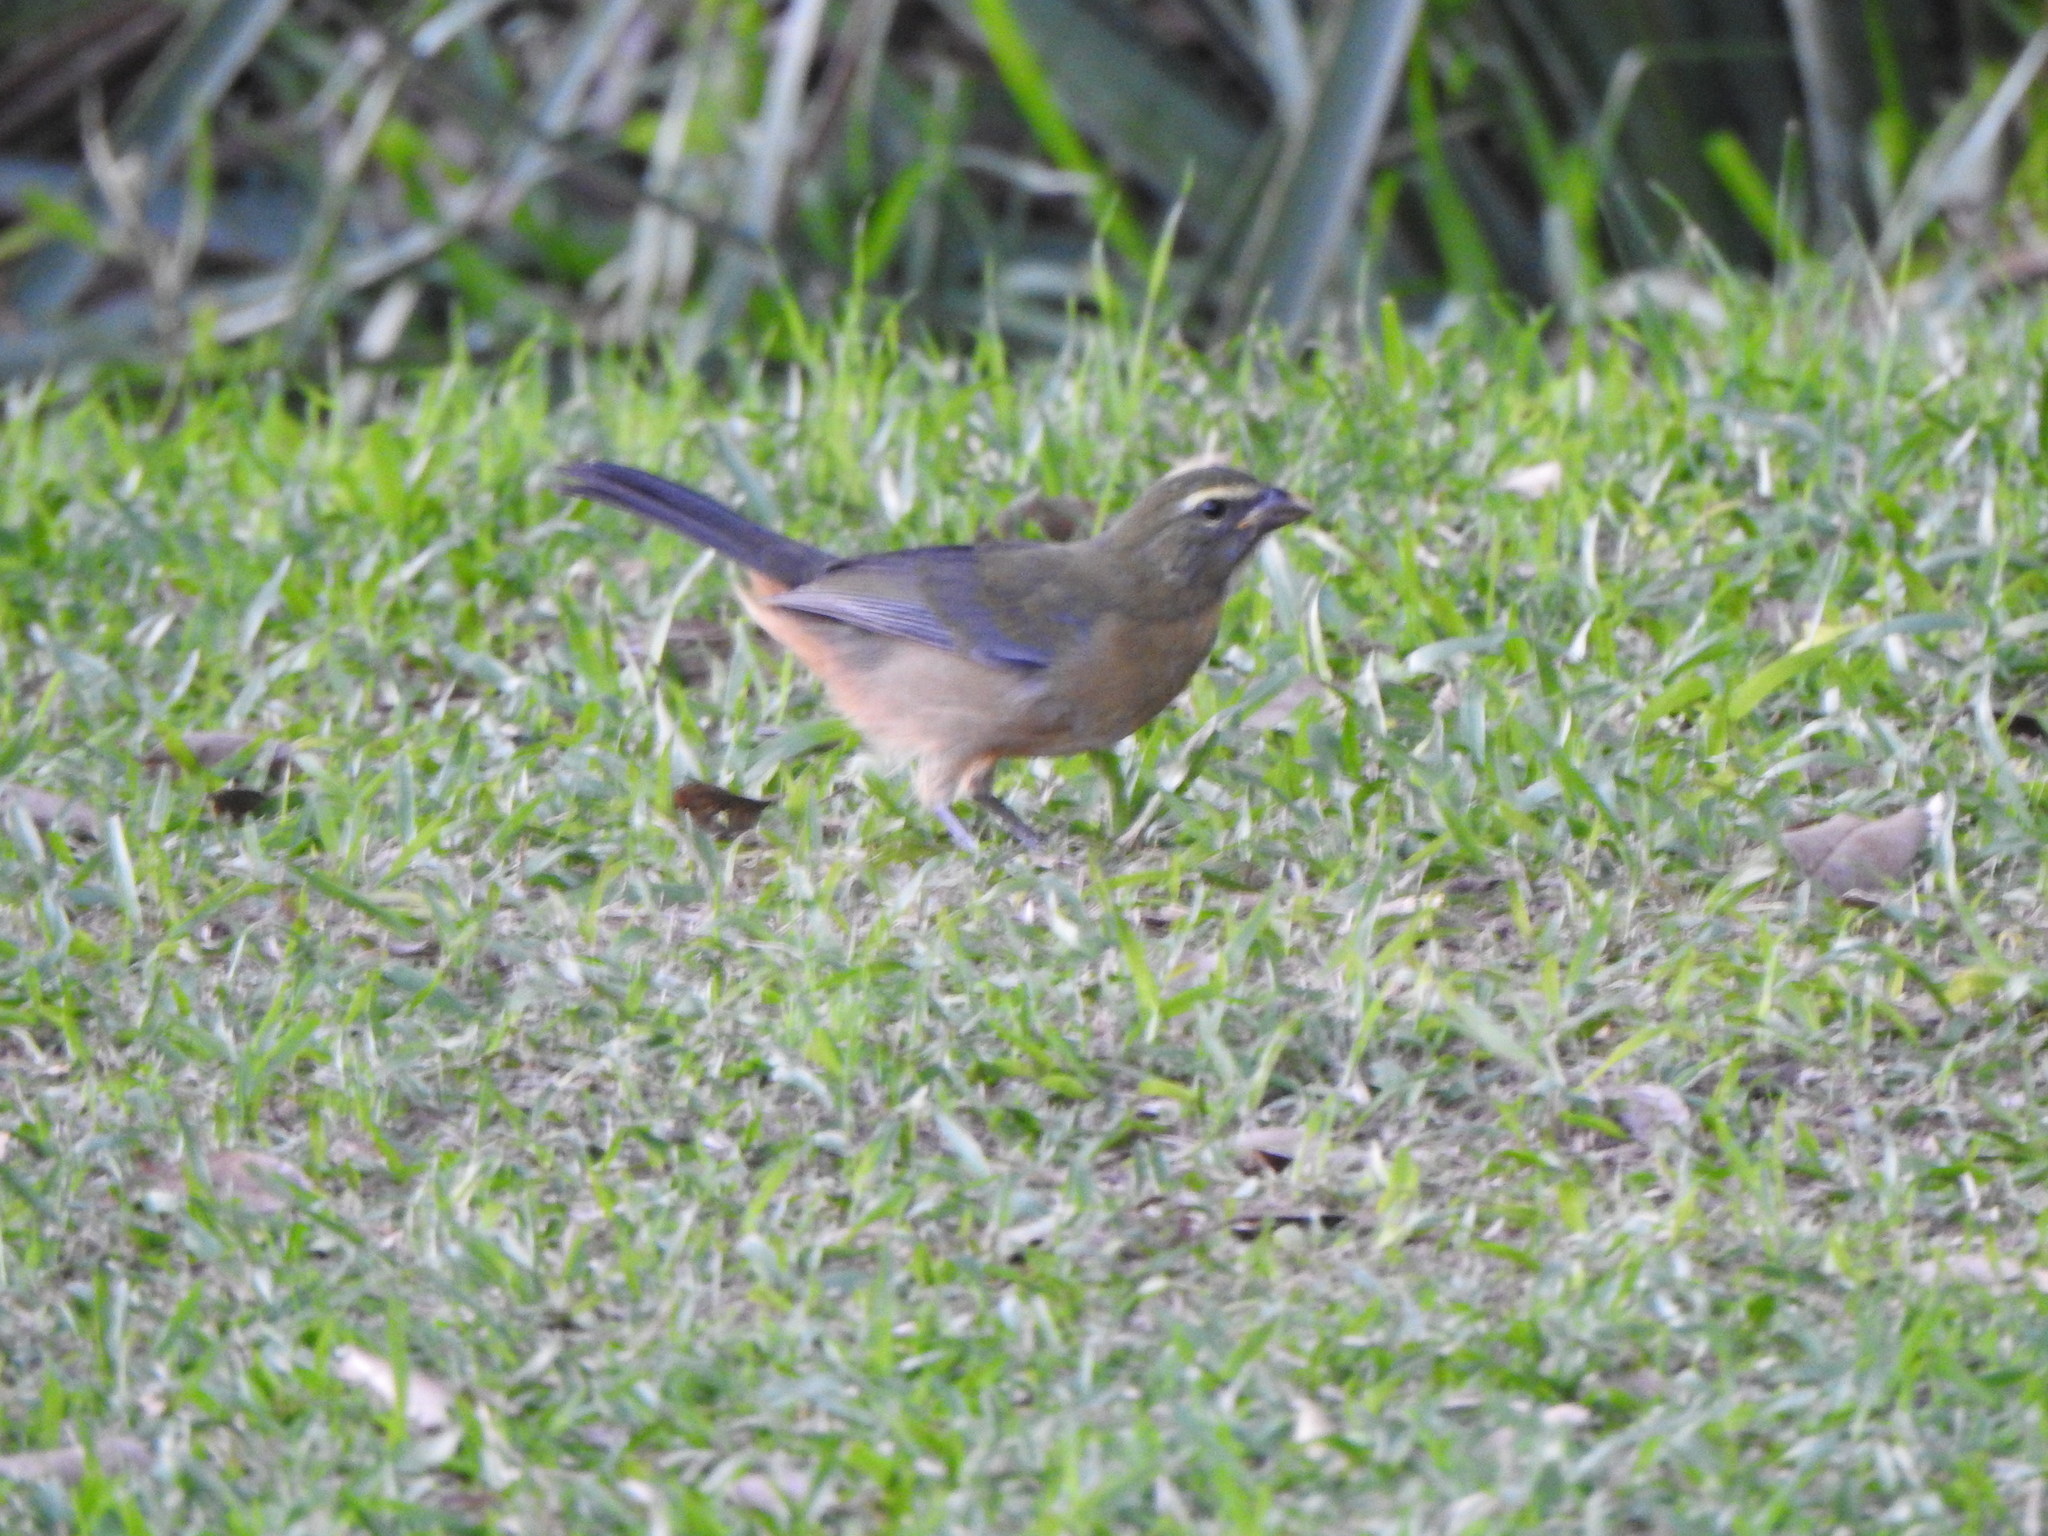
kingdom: Animalia
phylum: Chordata
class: Aves
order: Passeriformes
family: Thraupidae
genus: Saltator
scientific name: Saltator coerulescens
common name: Grayish saltator
